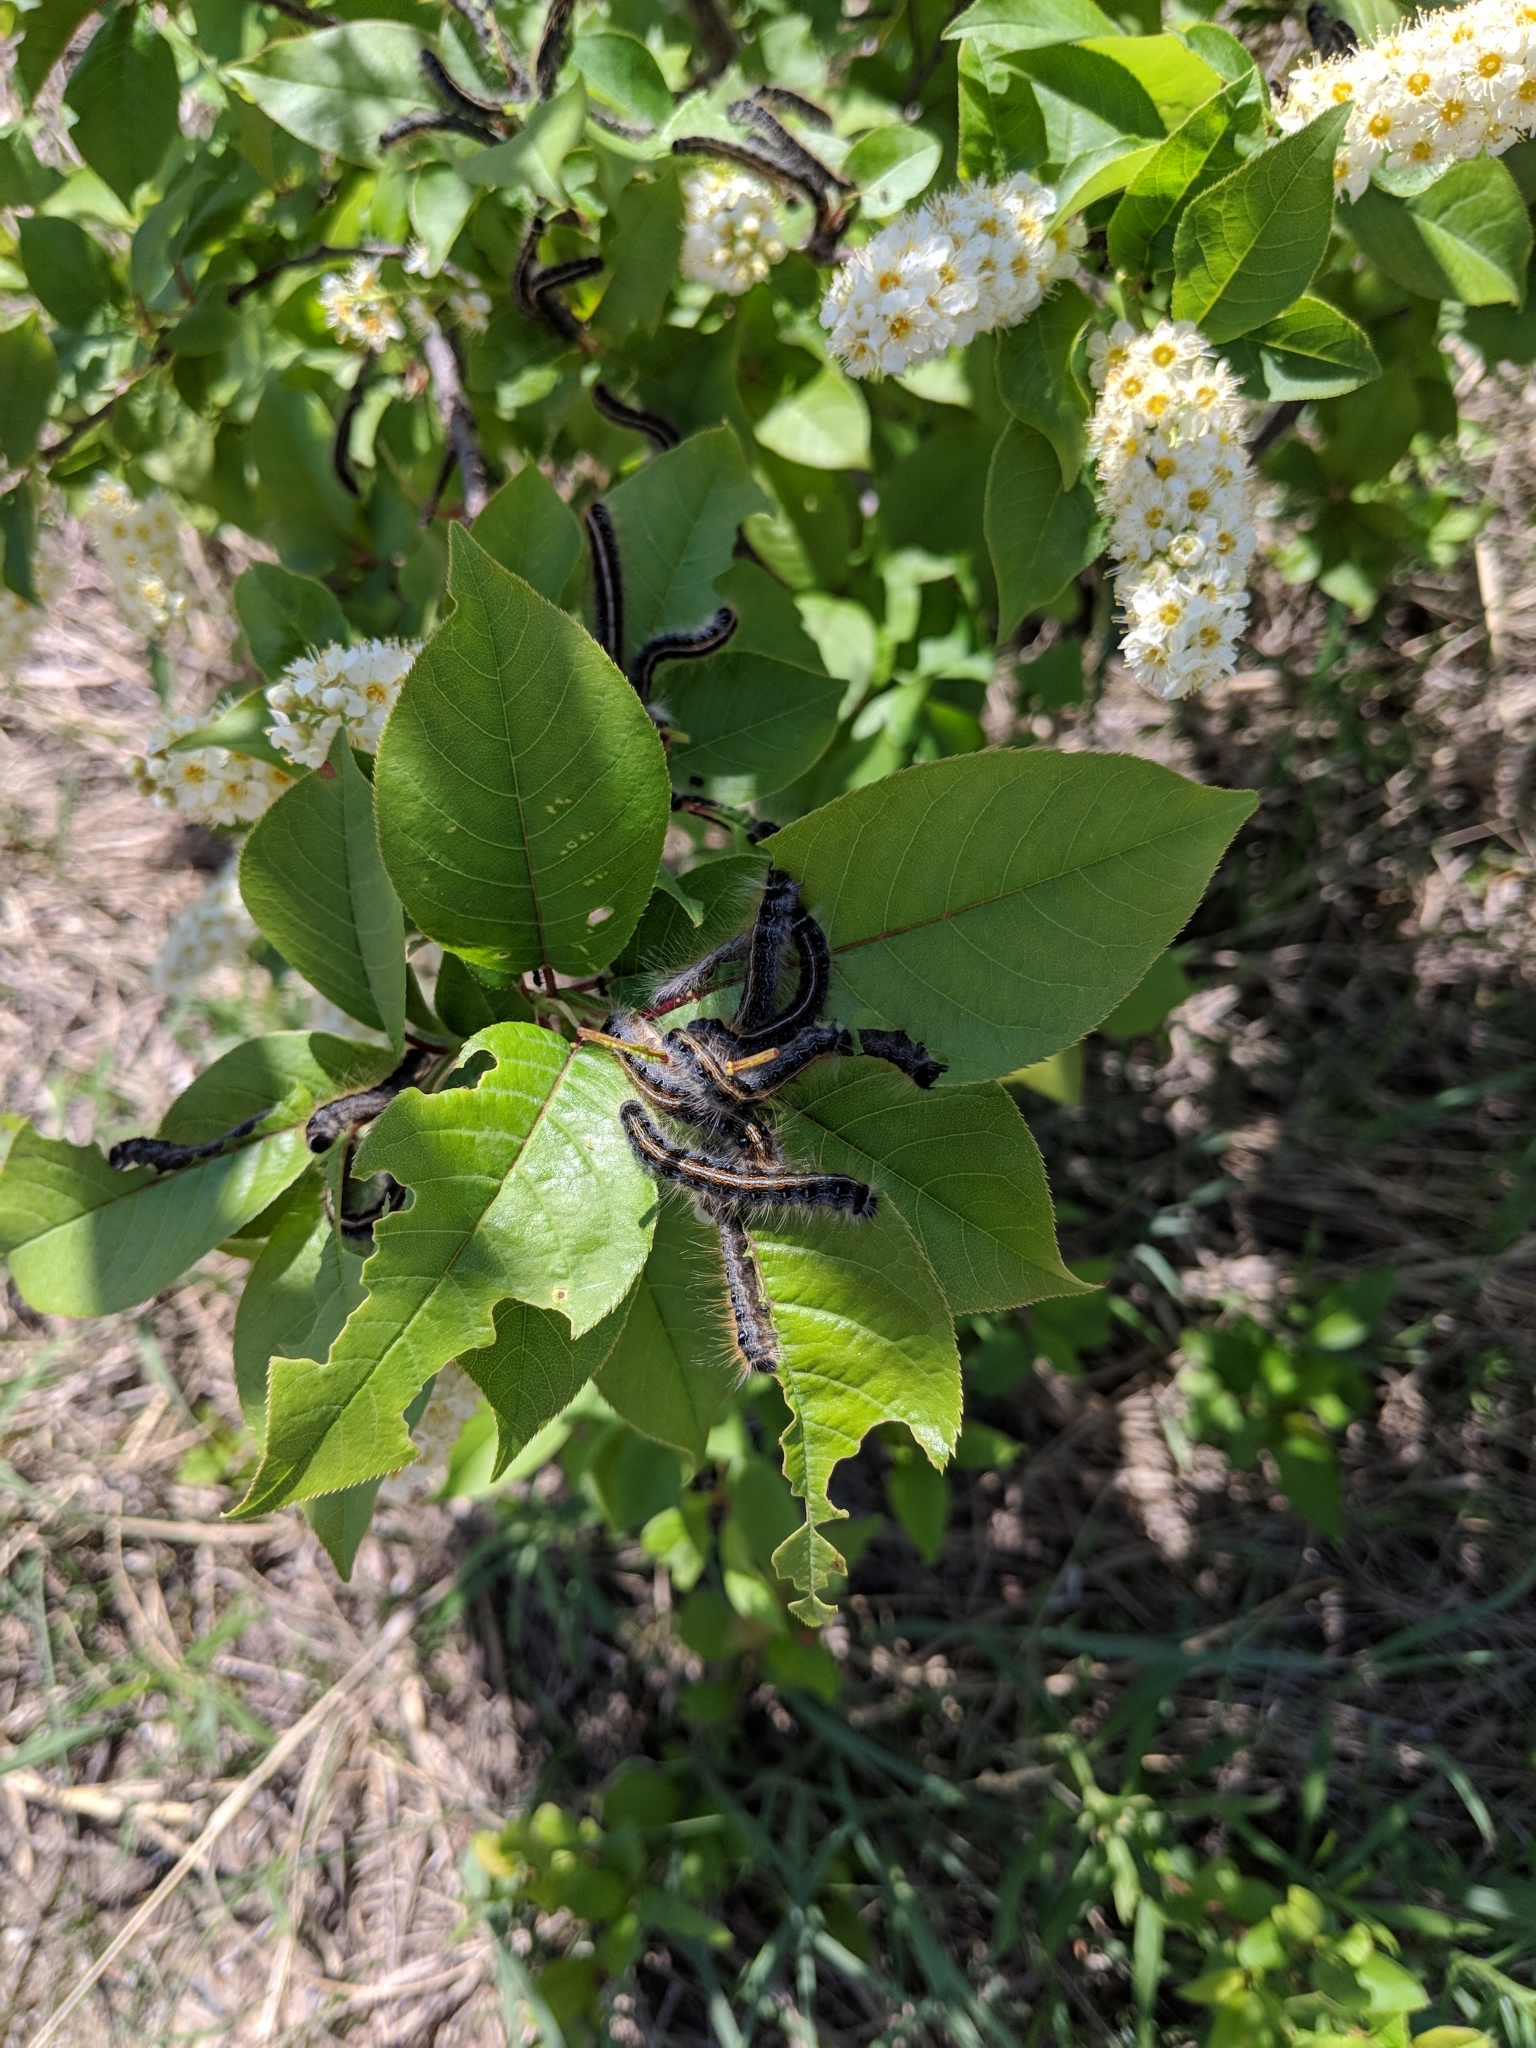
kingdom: Animalia
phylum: Arthropoda
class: Insecta
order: Lepidoptera
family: Lasiocampidae
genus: Malacosoma
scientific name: Malacosoma americana
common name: Eastern tent caterpillar moth
